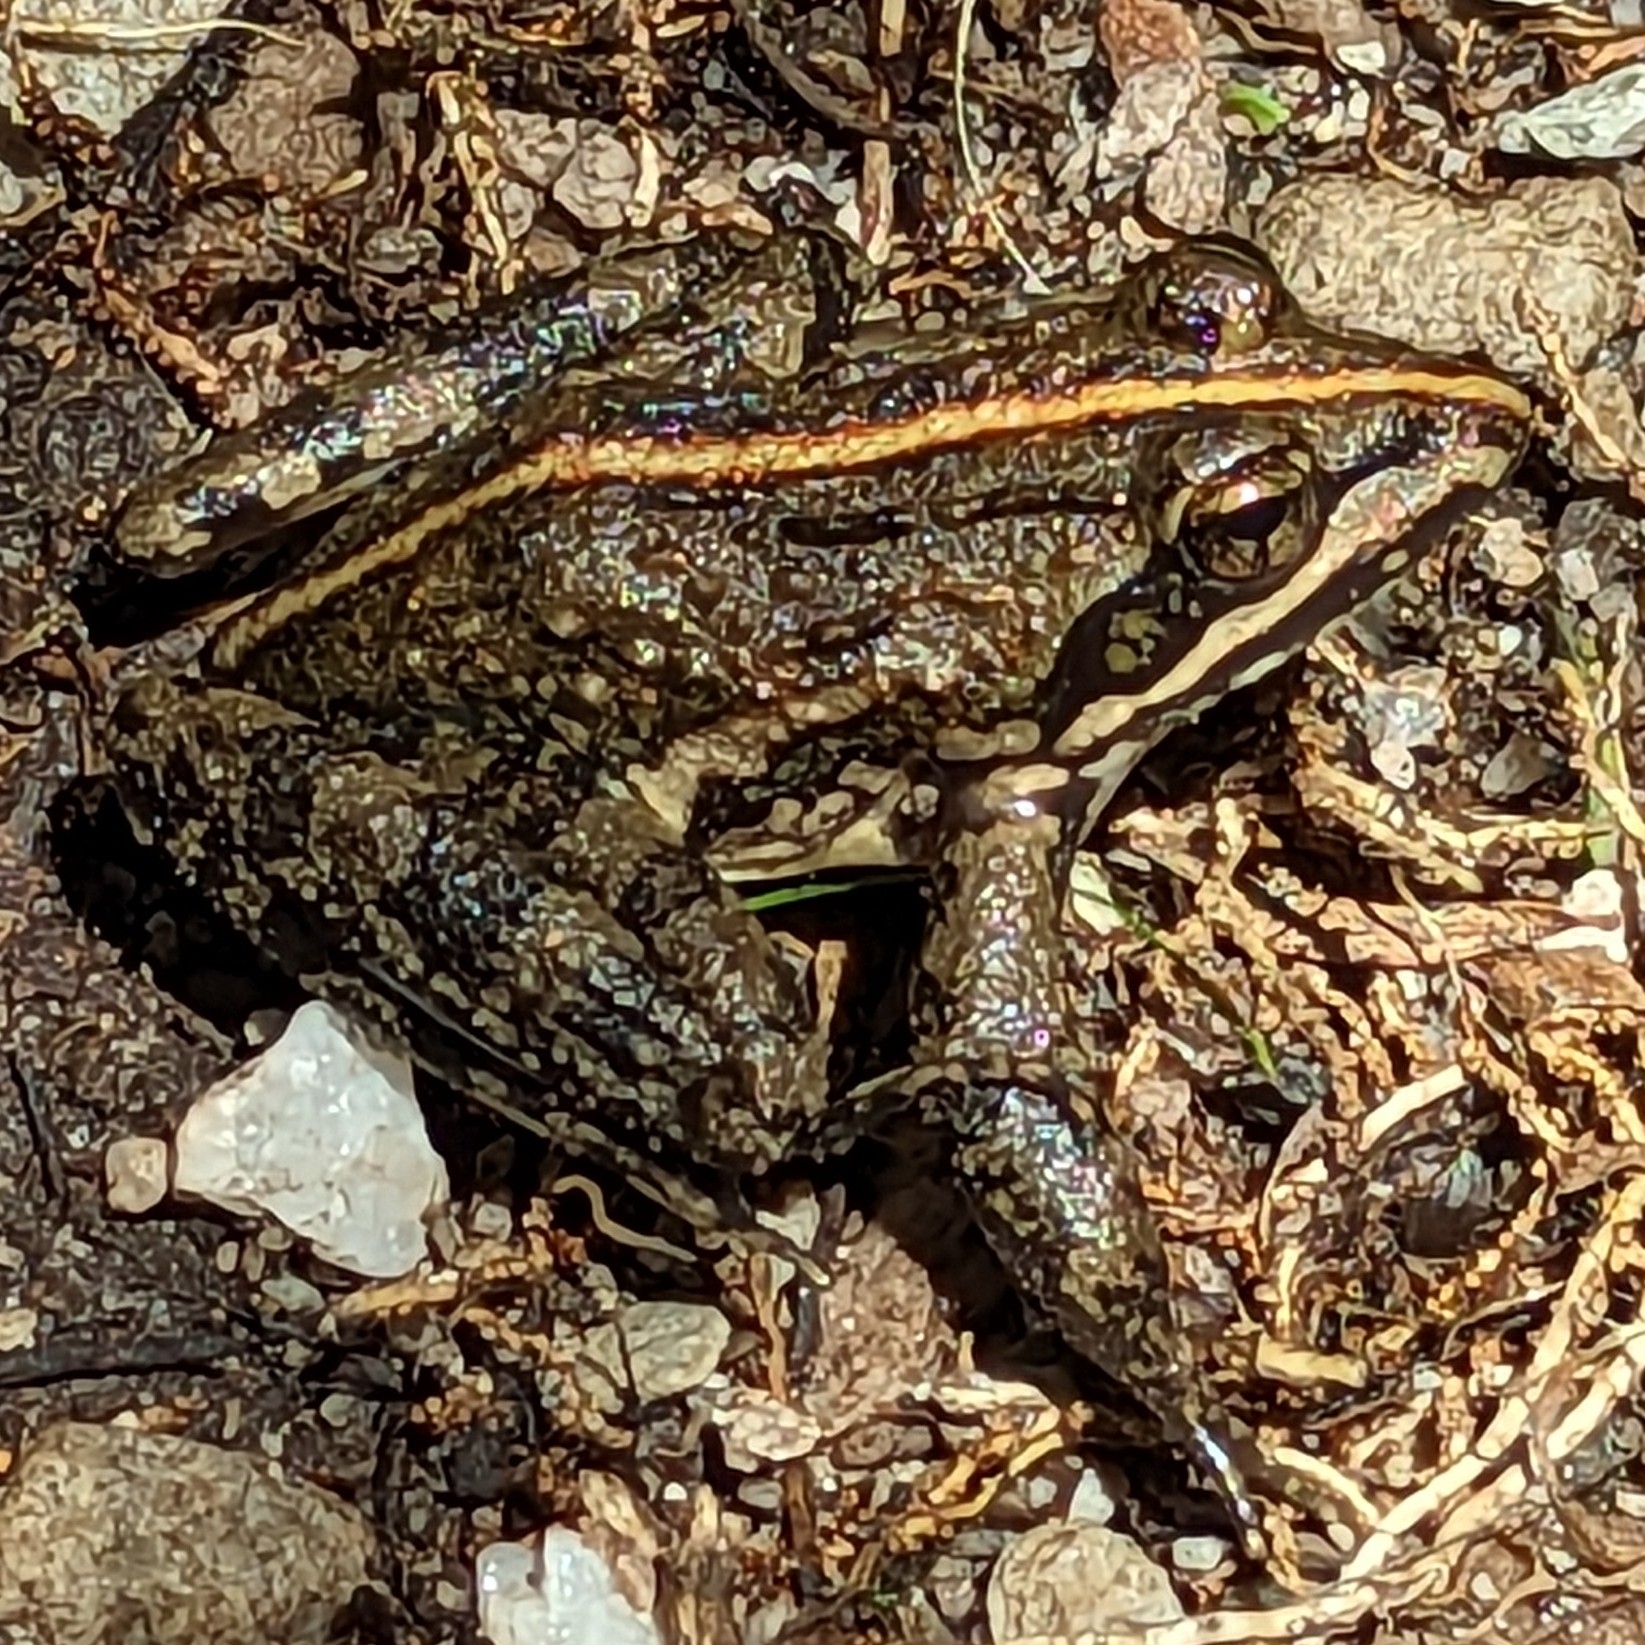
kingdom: Animalia
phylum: Chordata
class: Amphibia
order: Anura
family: Pyxicephalidae
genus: Amietia
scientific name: Amietia fuscigula
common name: Cape rana
